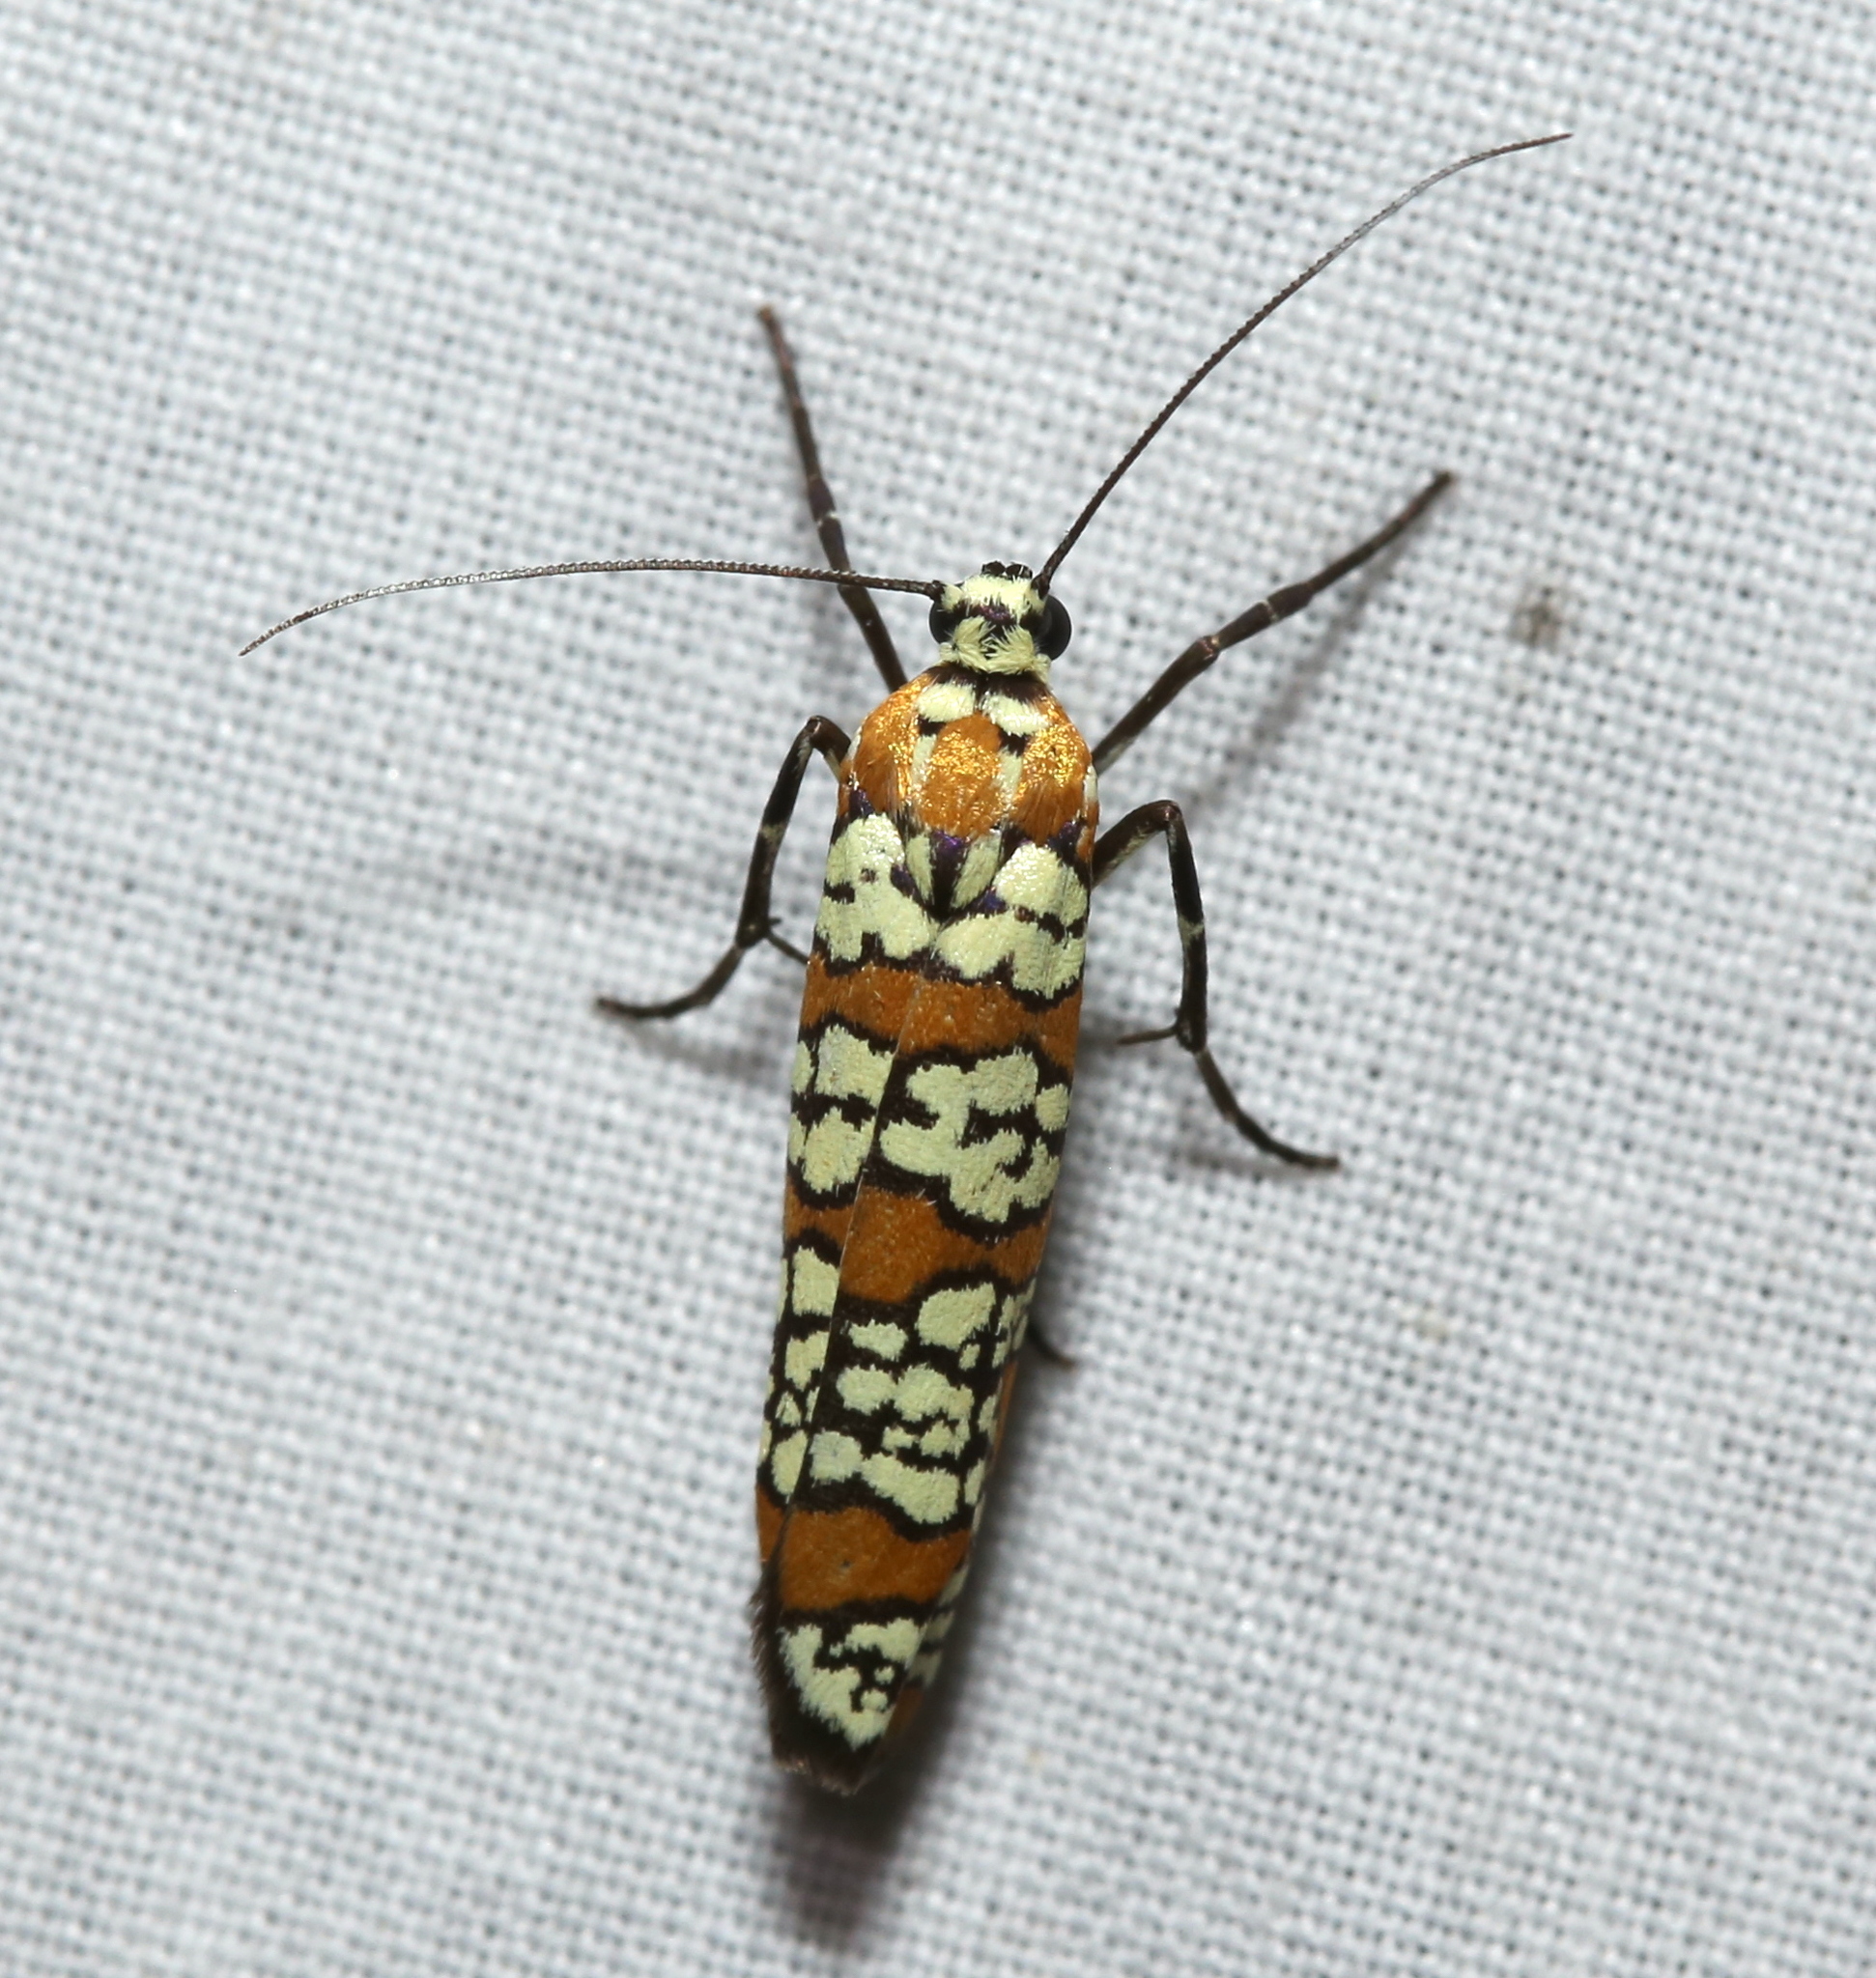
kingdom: Animalia
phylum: Arthropoda
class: Insecta
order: Lepidoptera
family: Attevidae
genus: Atteva
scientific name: Atteva punctella
